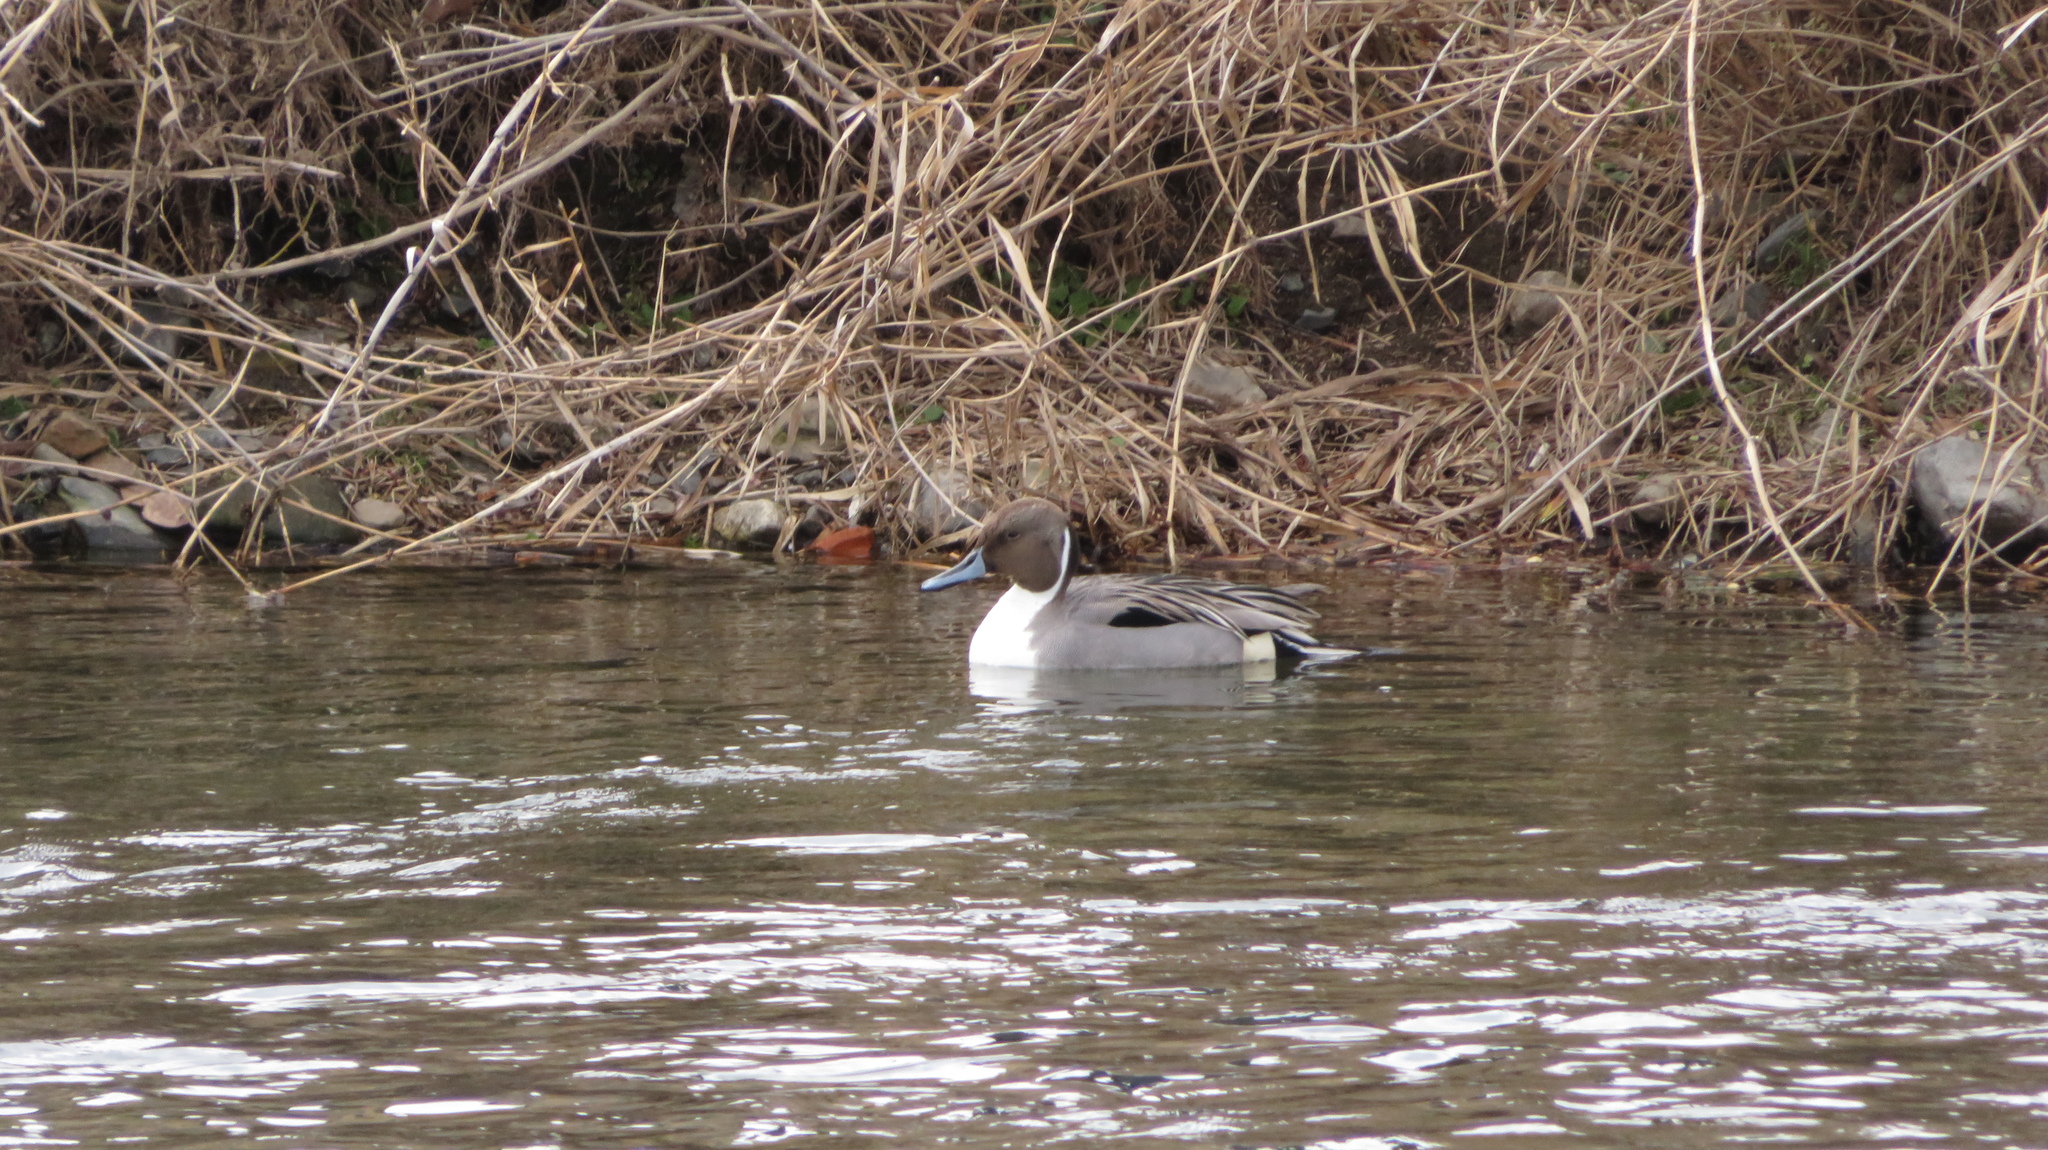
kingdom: Animalia
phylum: Chordata
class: Aves
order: Anseriformes
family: Anatidae
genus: Anas
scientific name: Anas acuta
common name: Northern pintail
